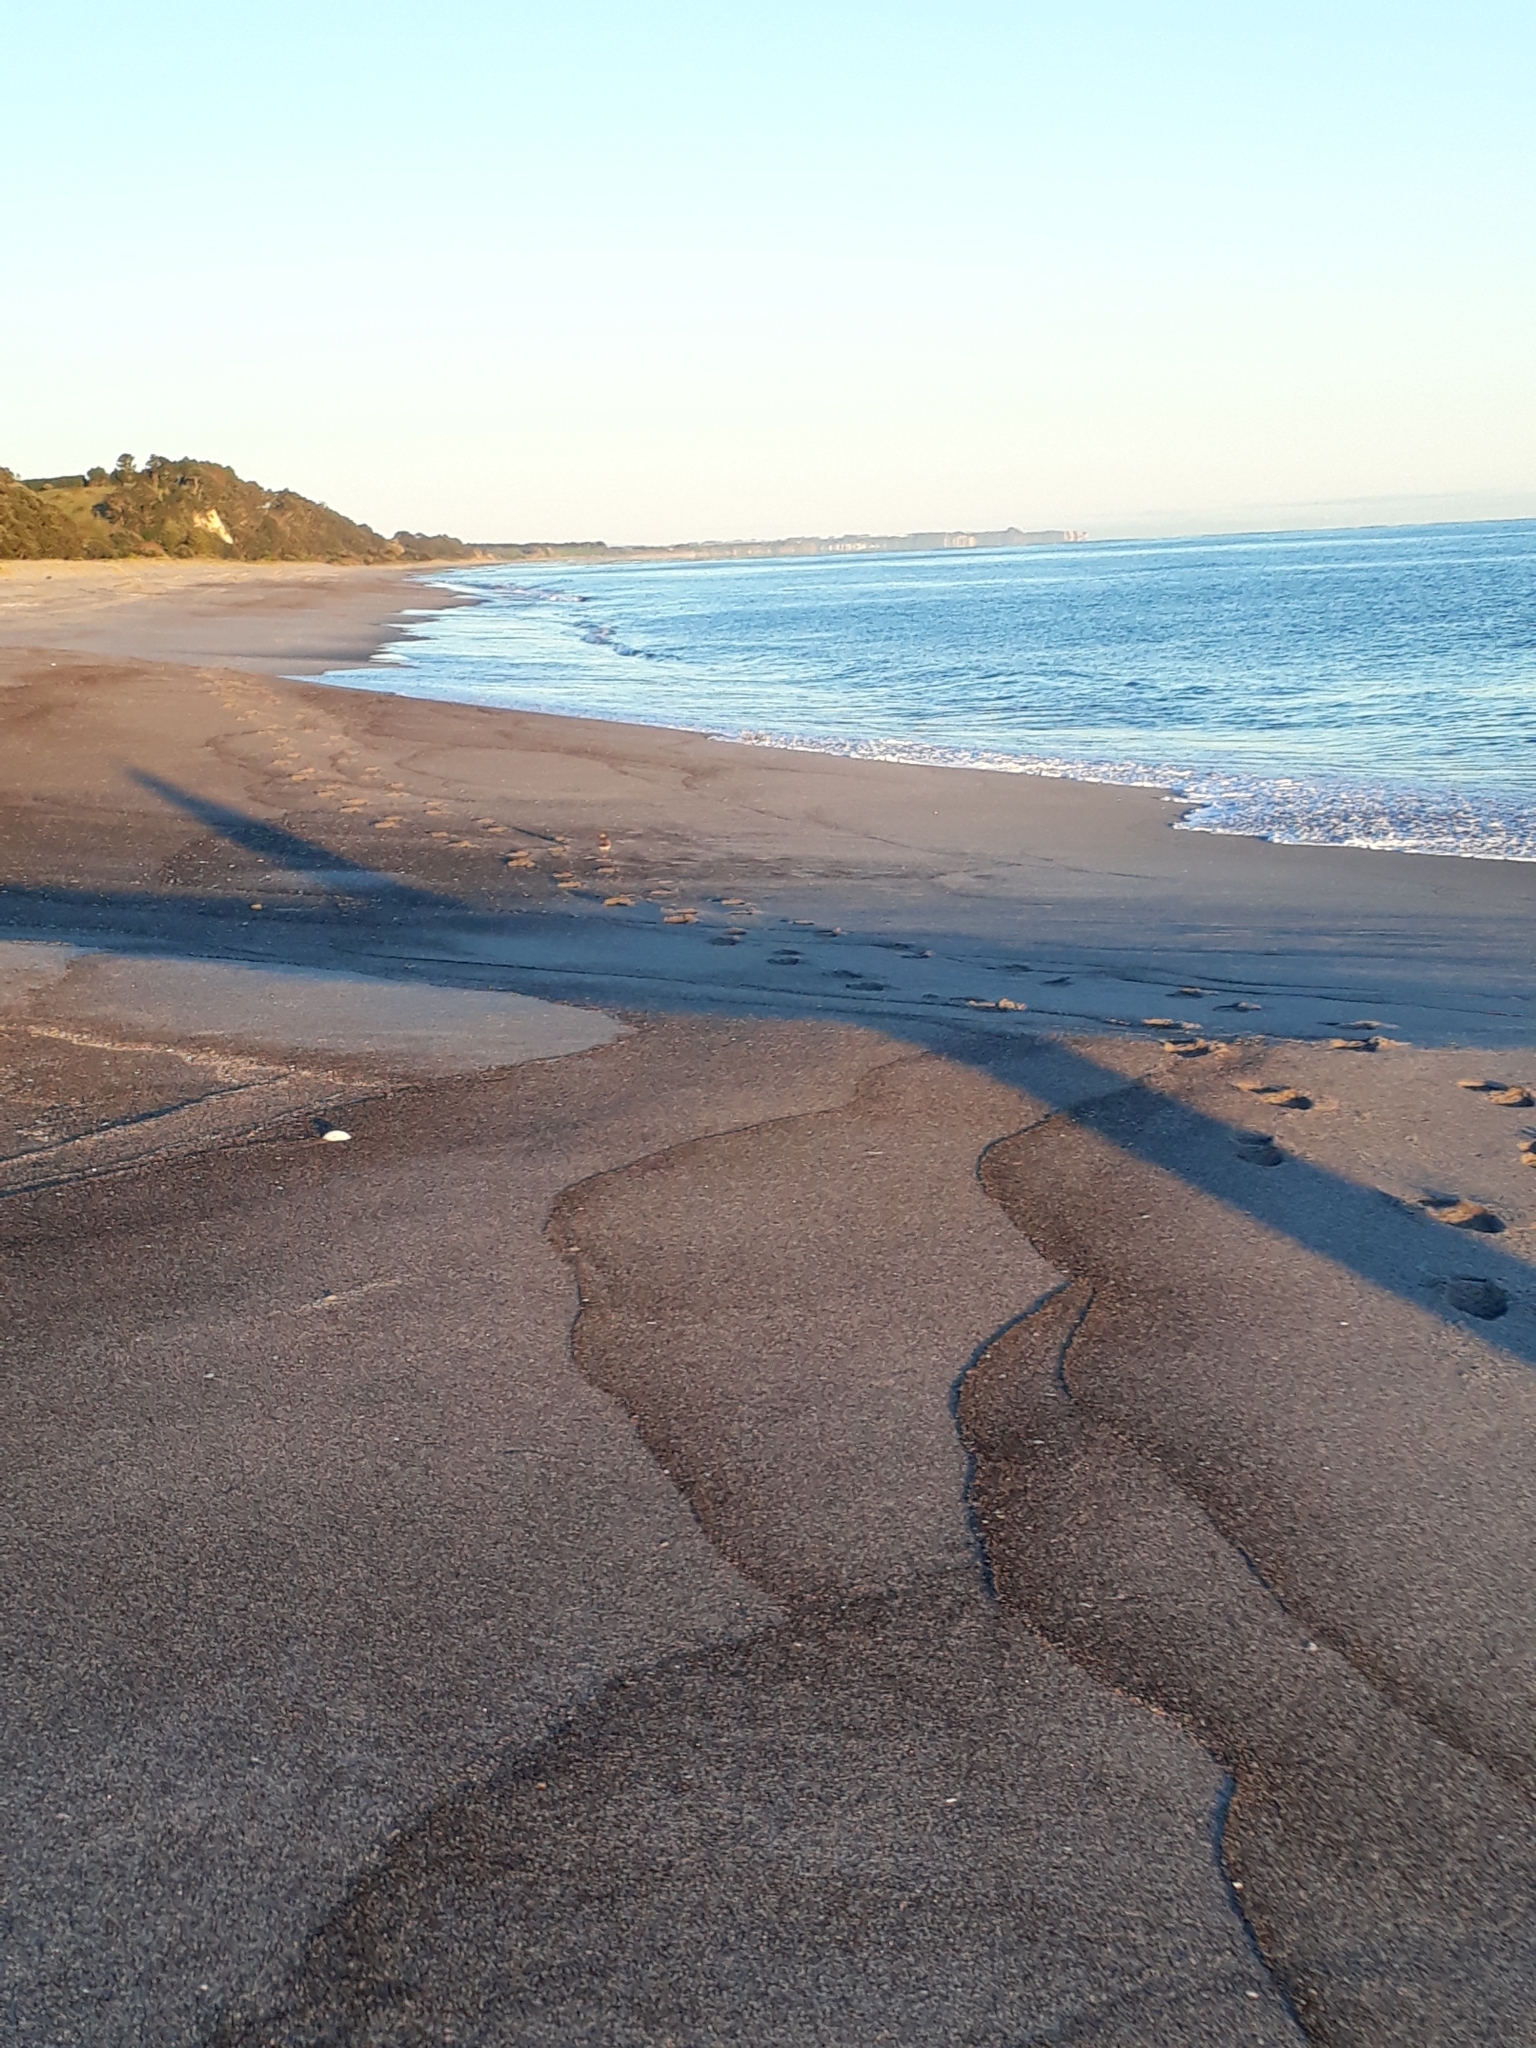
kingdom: Animalia
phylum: Chordata
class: Aves
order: Charadriiformes
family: Charadriidae
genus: Anarhynchus
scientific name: Anarhynchus
